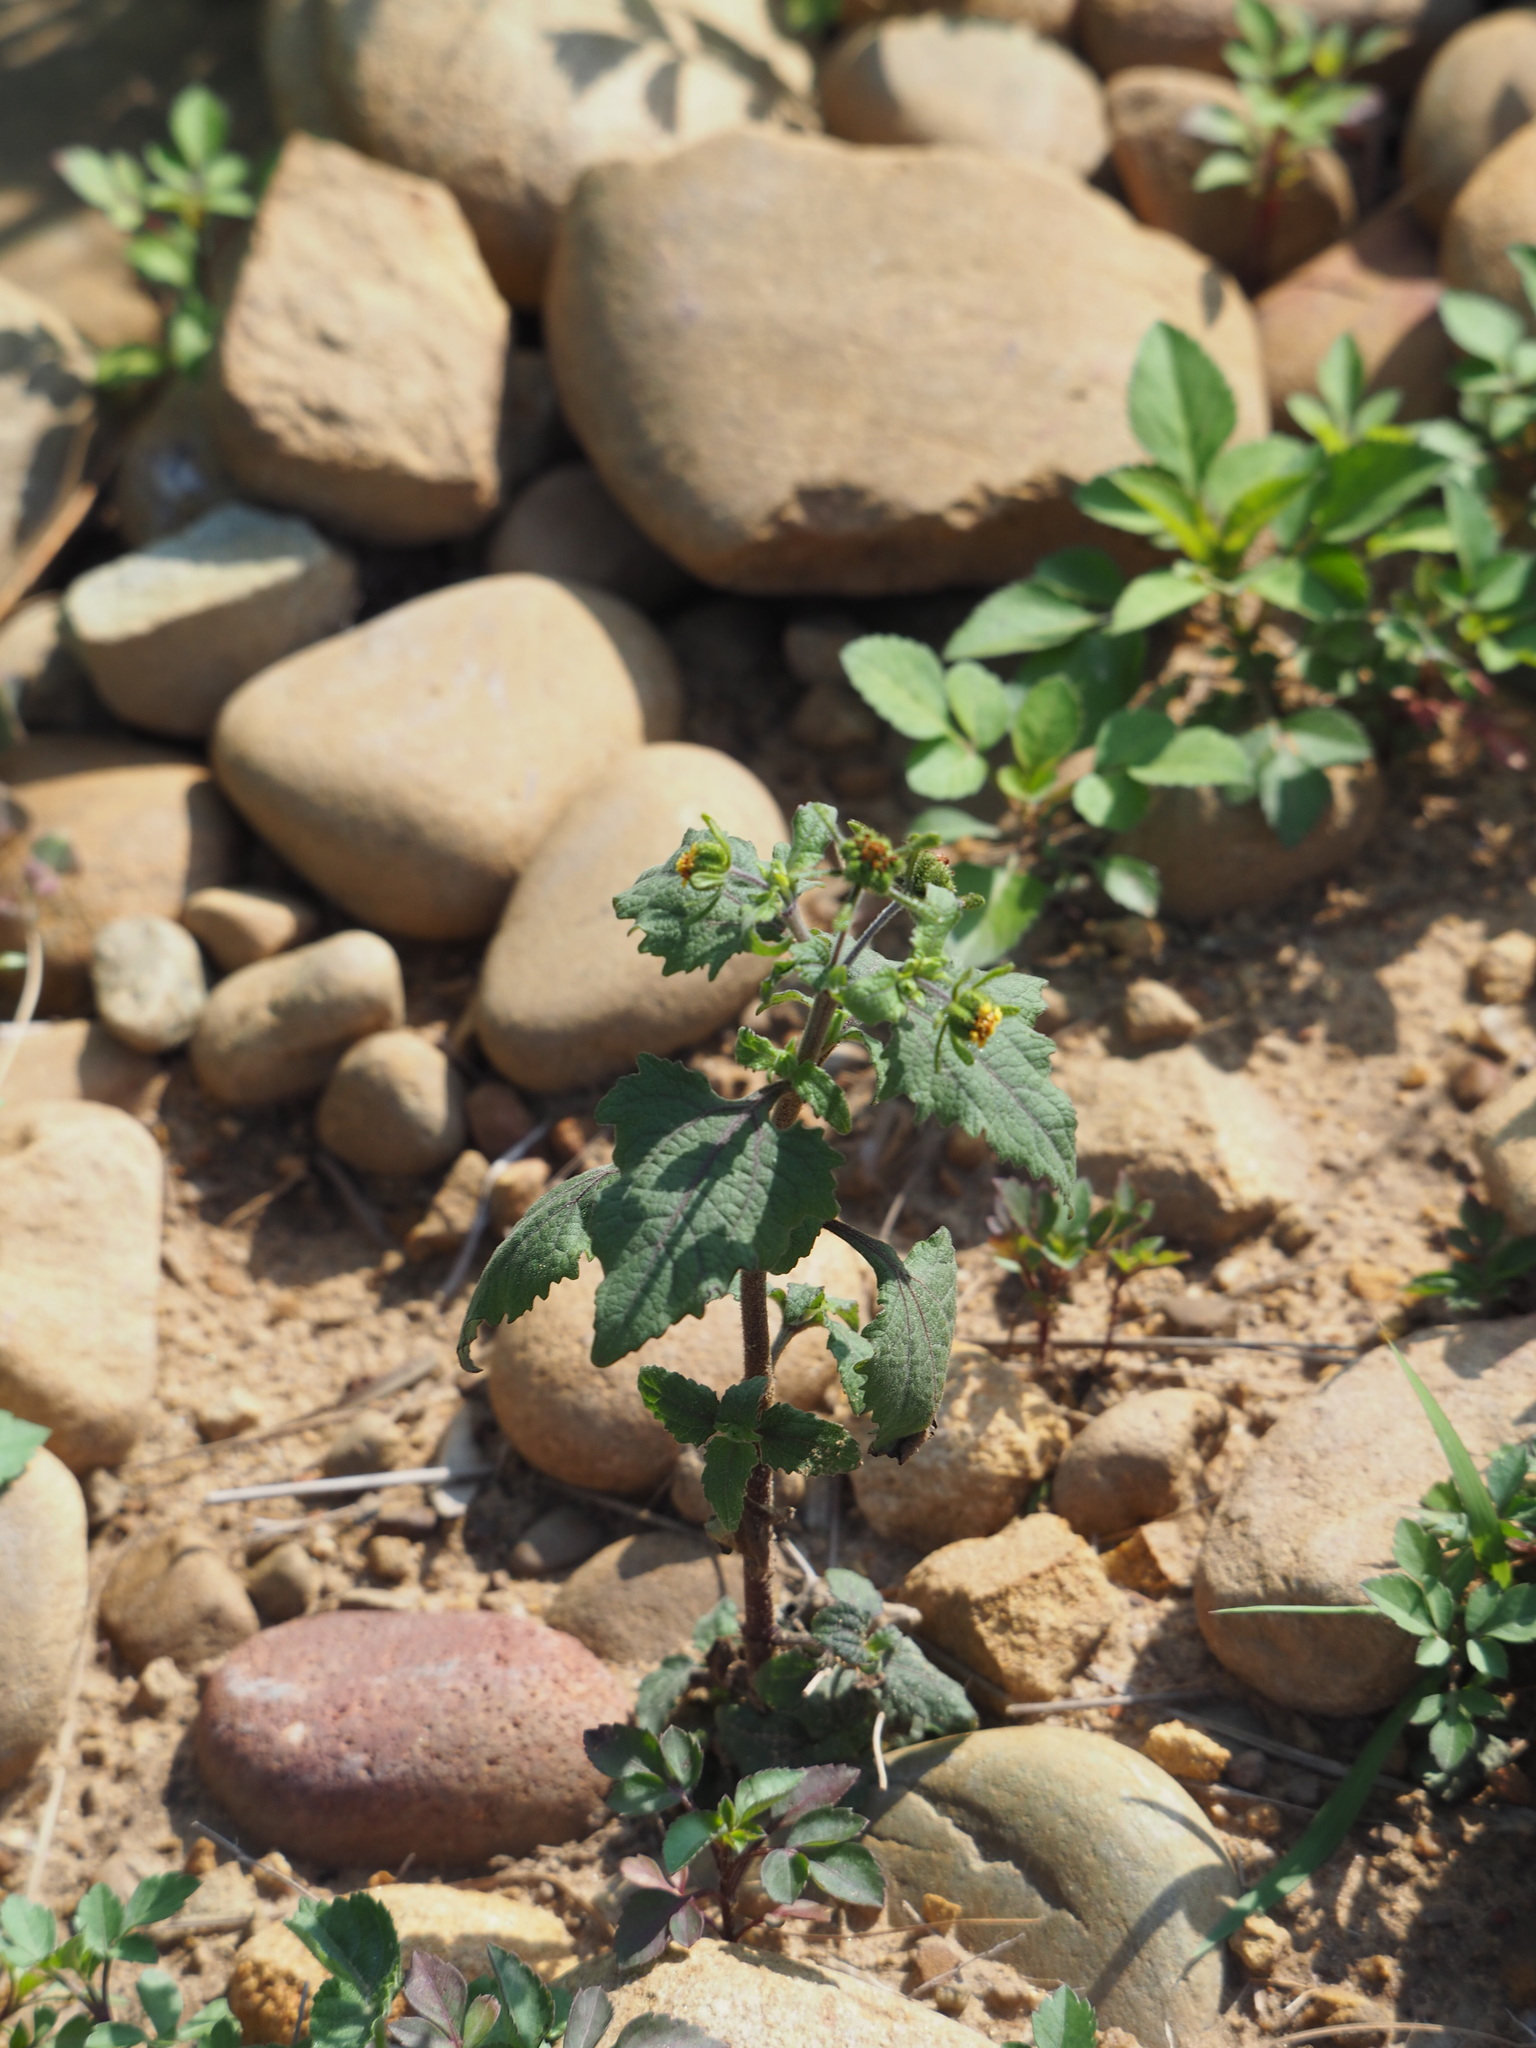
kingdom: Plantae
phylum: Tracheophyta
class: Magnoliopsida
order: Asterales
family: Asteraceae
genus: Sigesbeckia
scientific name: Sigesbeckia orientalis
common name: Eastern st paul's-wort
